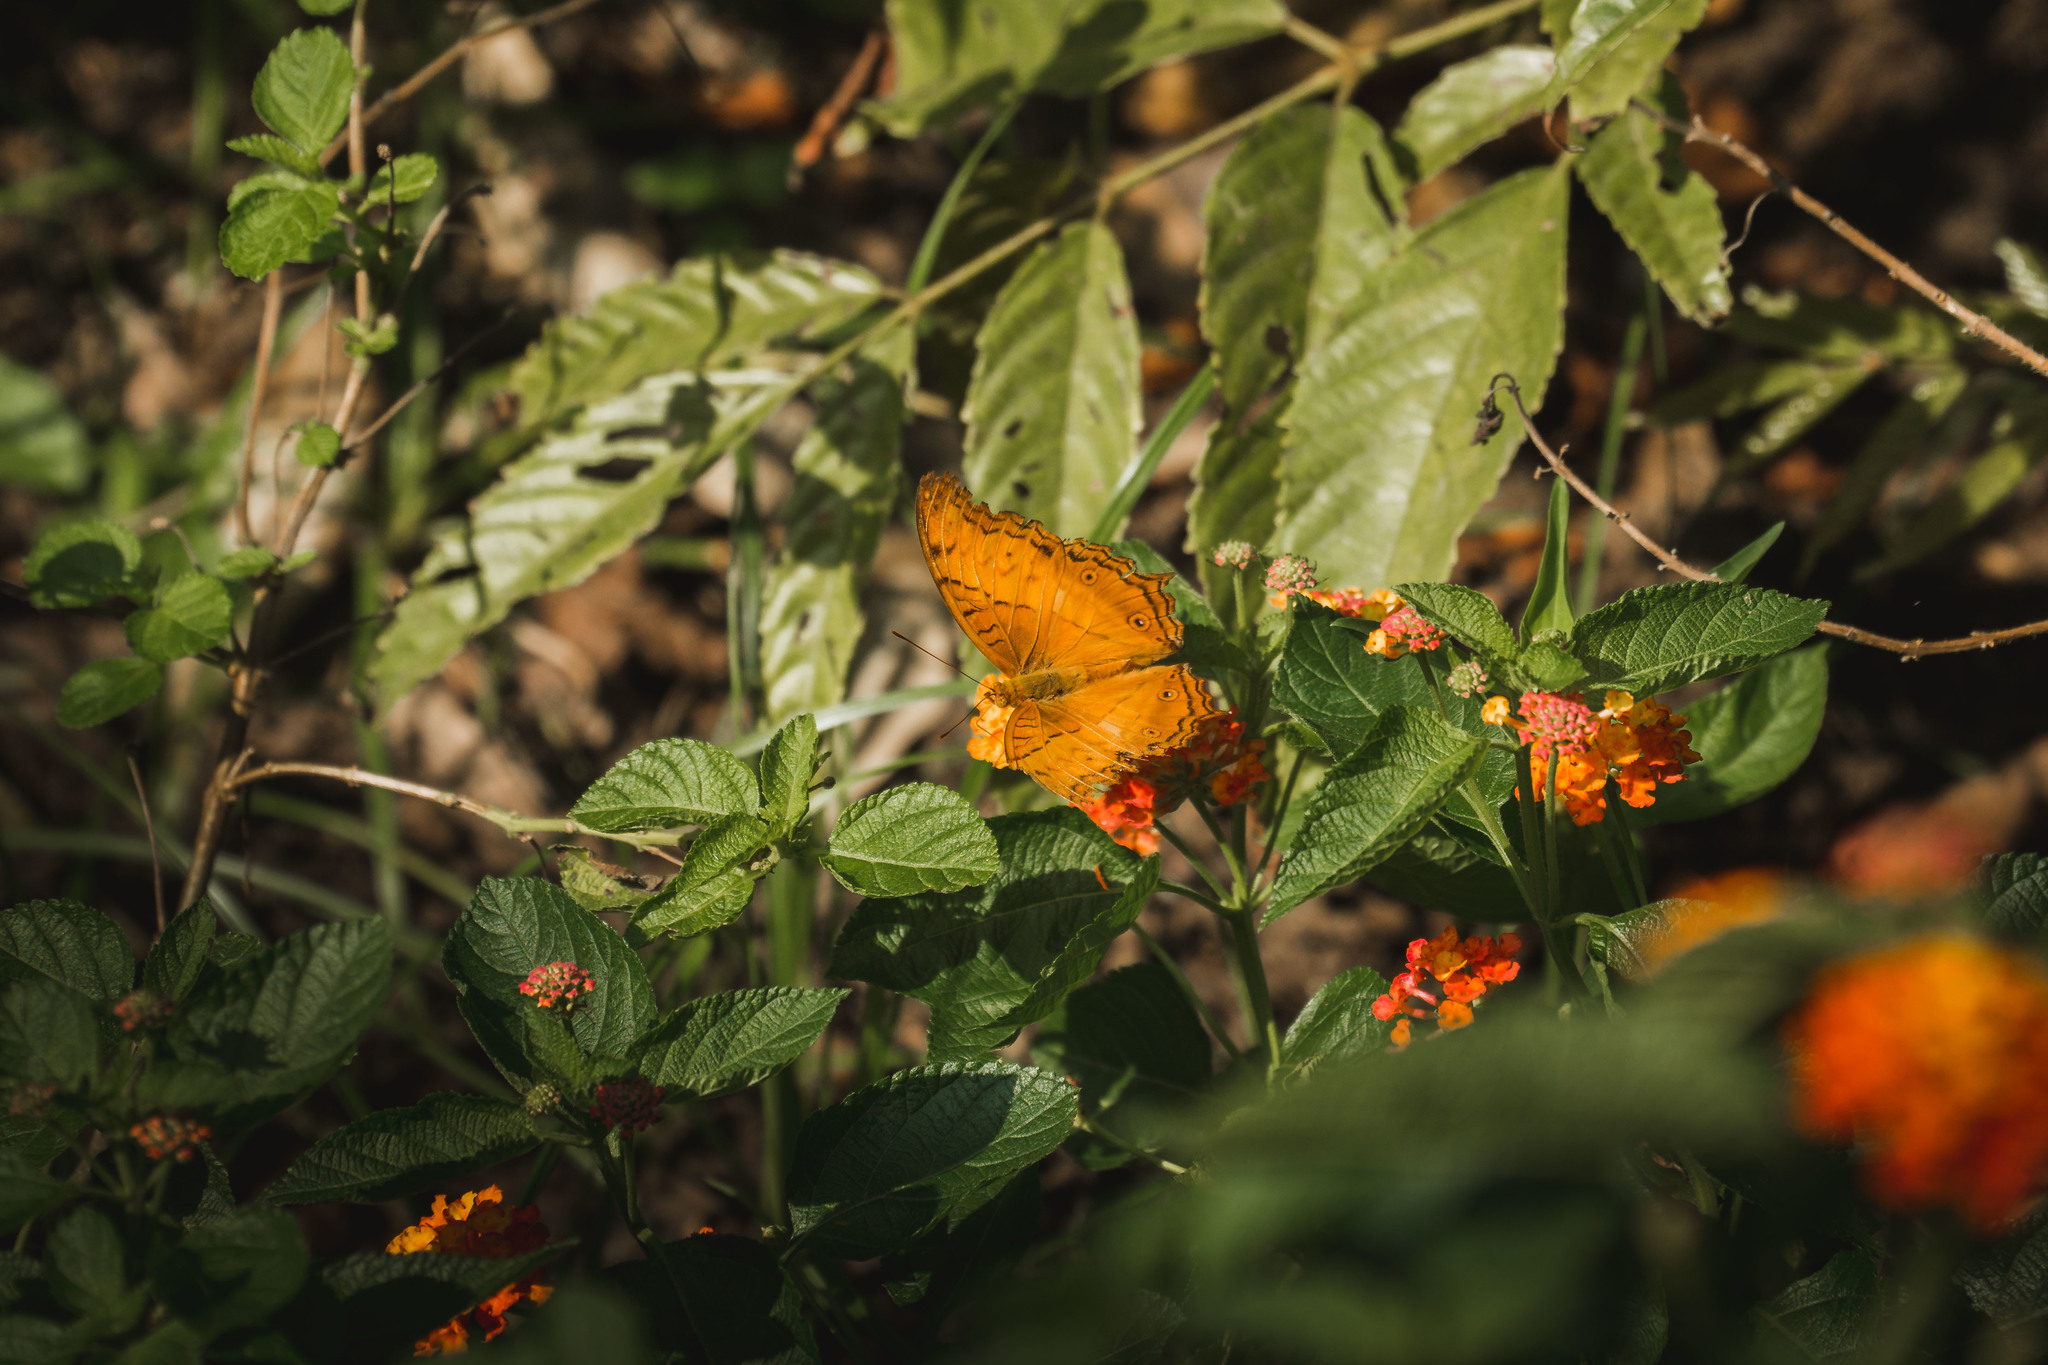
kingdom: Animalia
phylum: Arthropoda
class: Insecta
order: Lepidoptera
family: Nymphalidae
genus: Vindula
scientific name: Vindula deione
